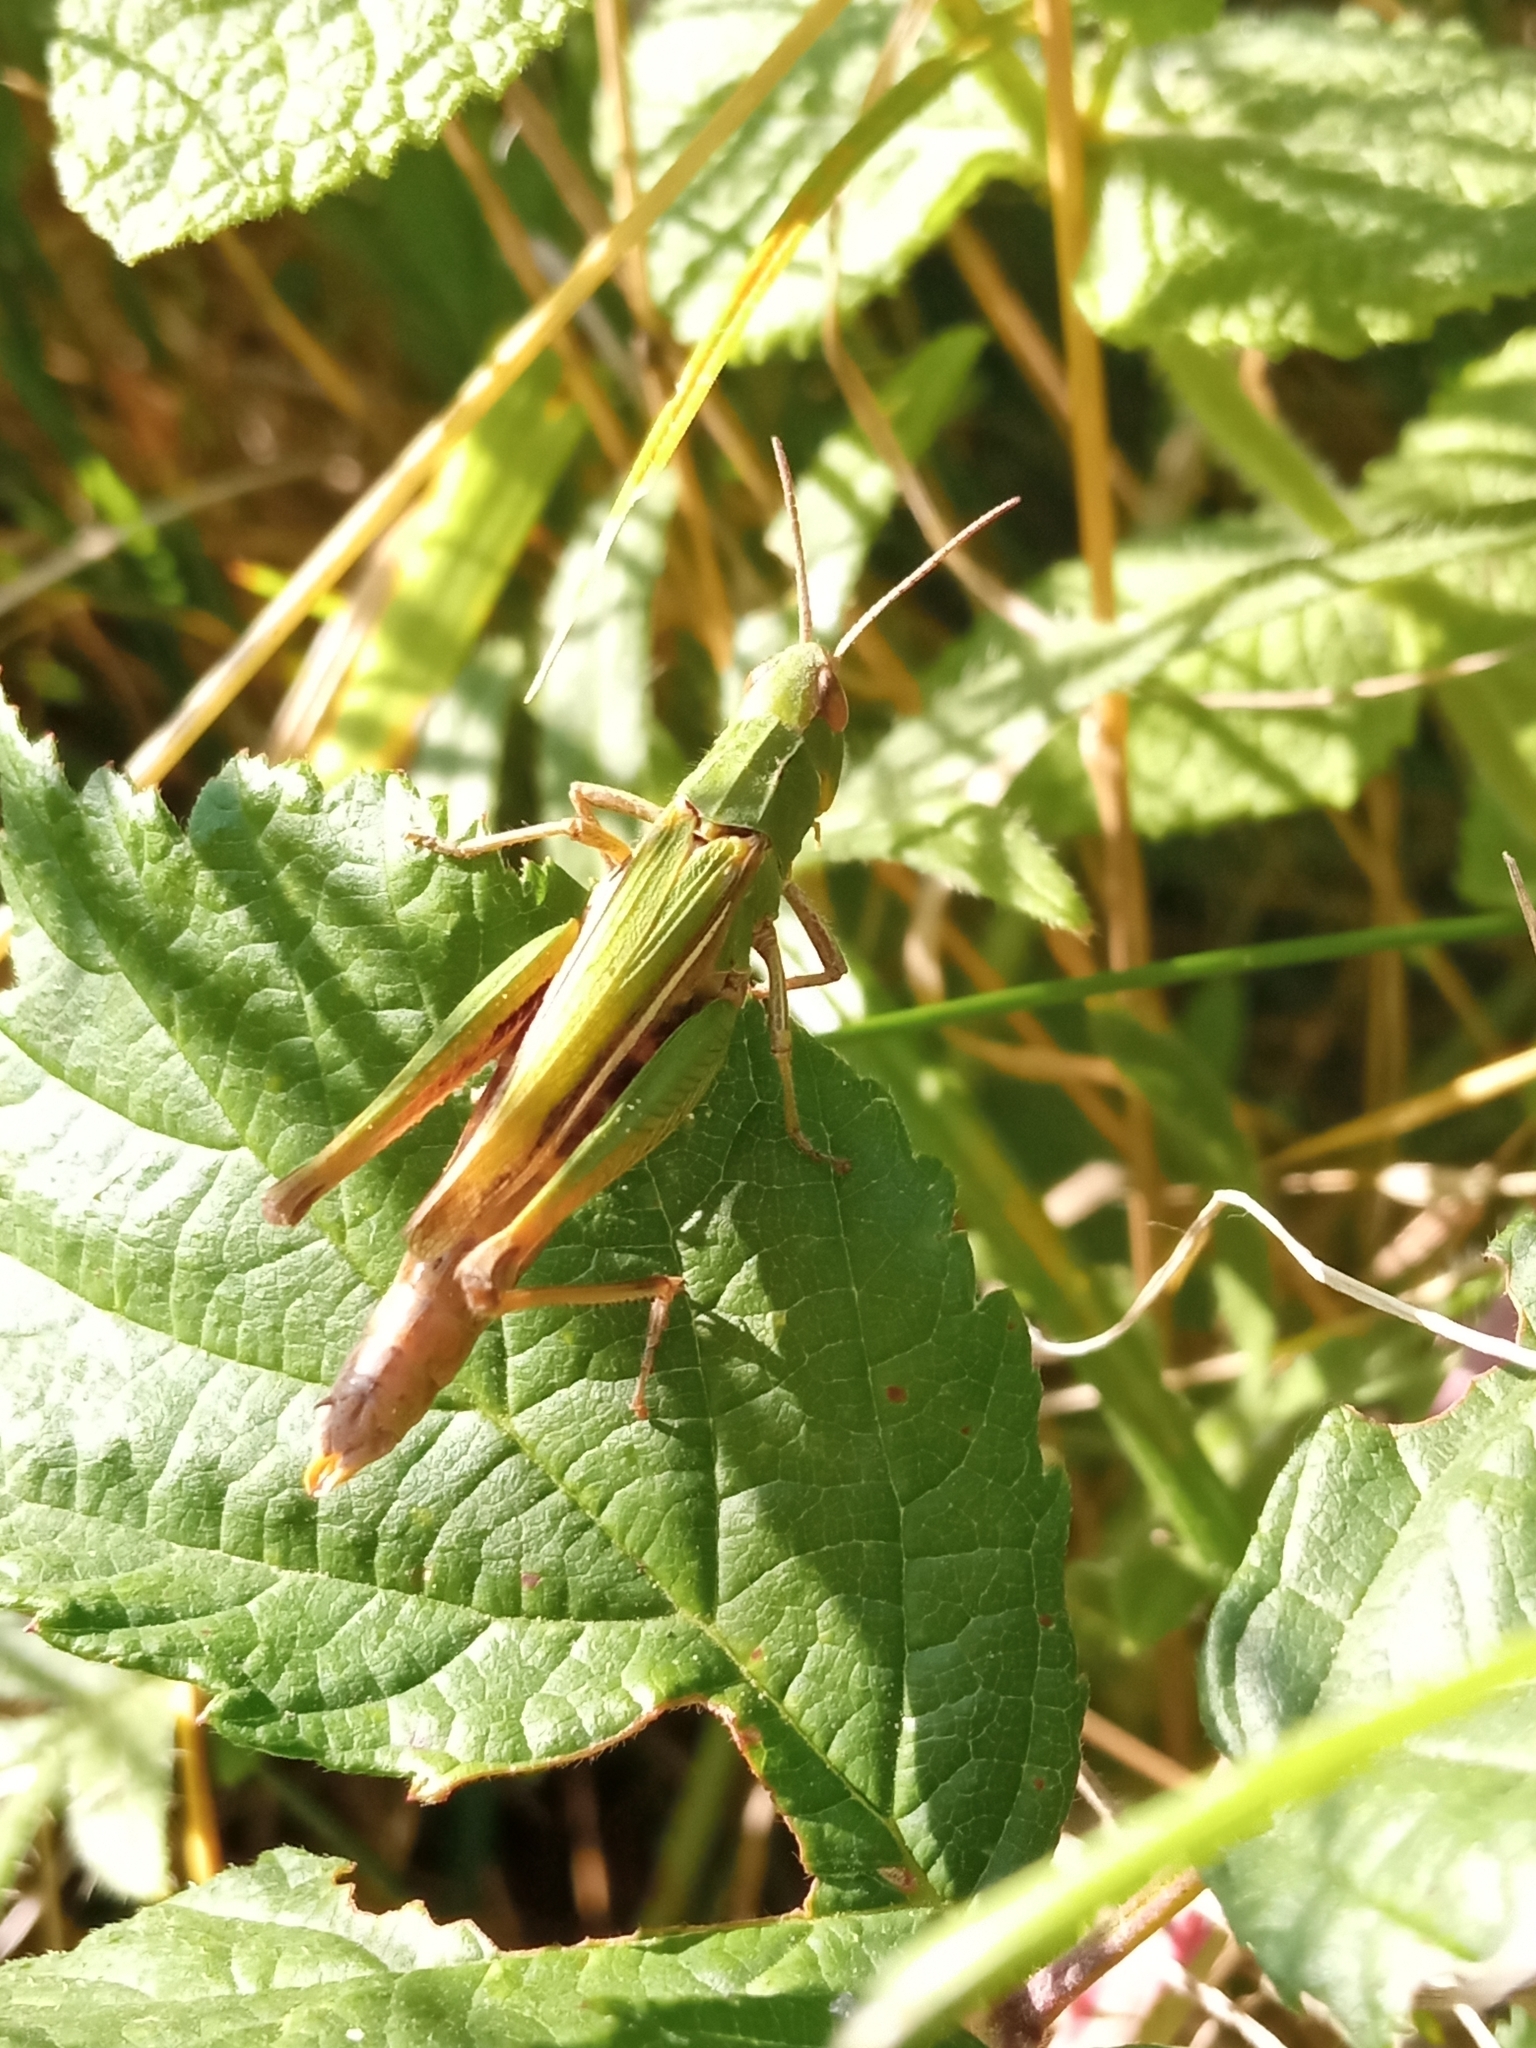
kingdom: Animalia
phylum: Arthropoda
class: Insecta
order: Orthoptera
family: Acrididae
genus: Omocestus
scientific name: Omocestus viridulus
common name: Common green grasshopper
